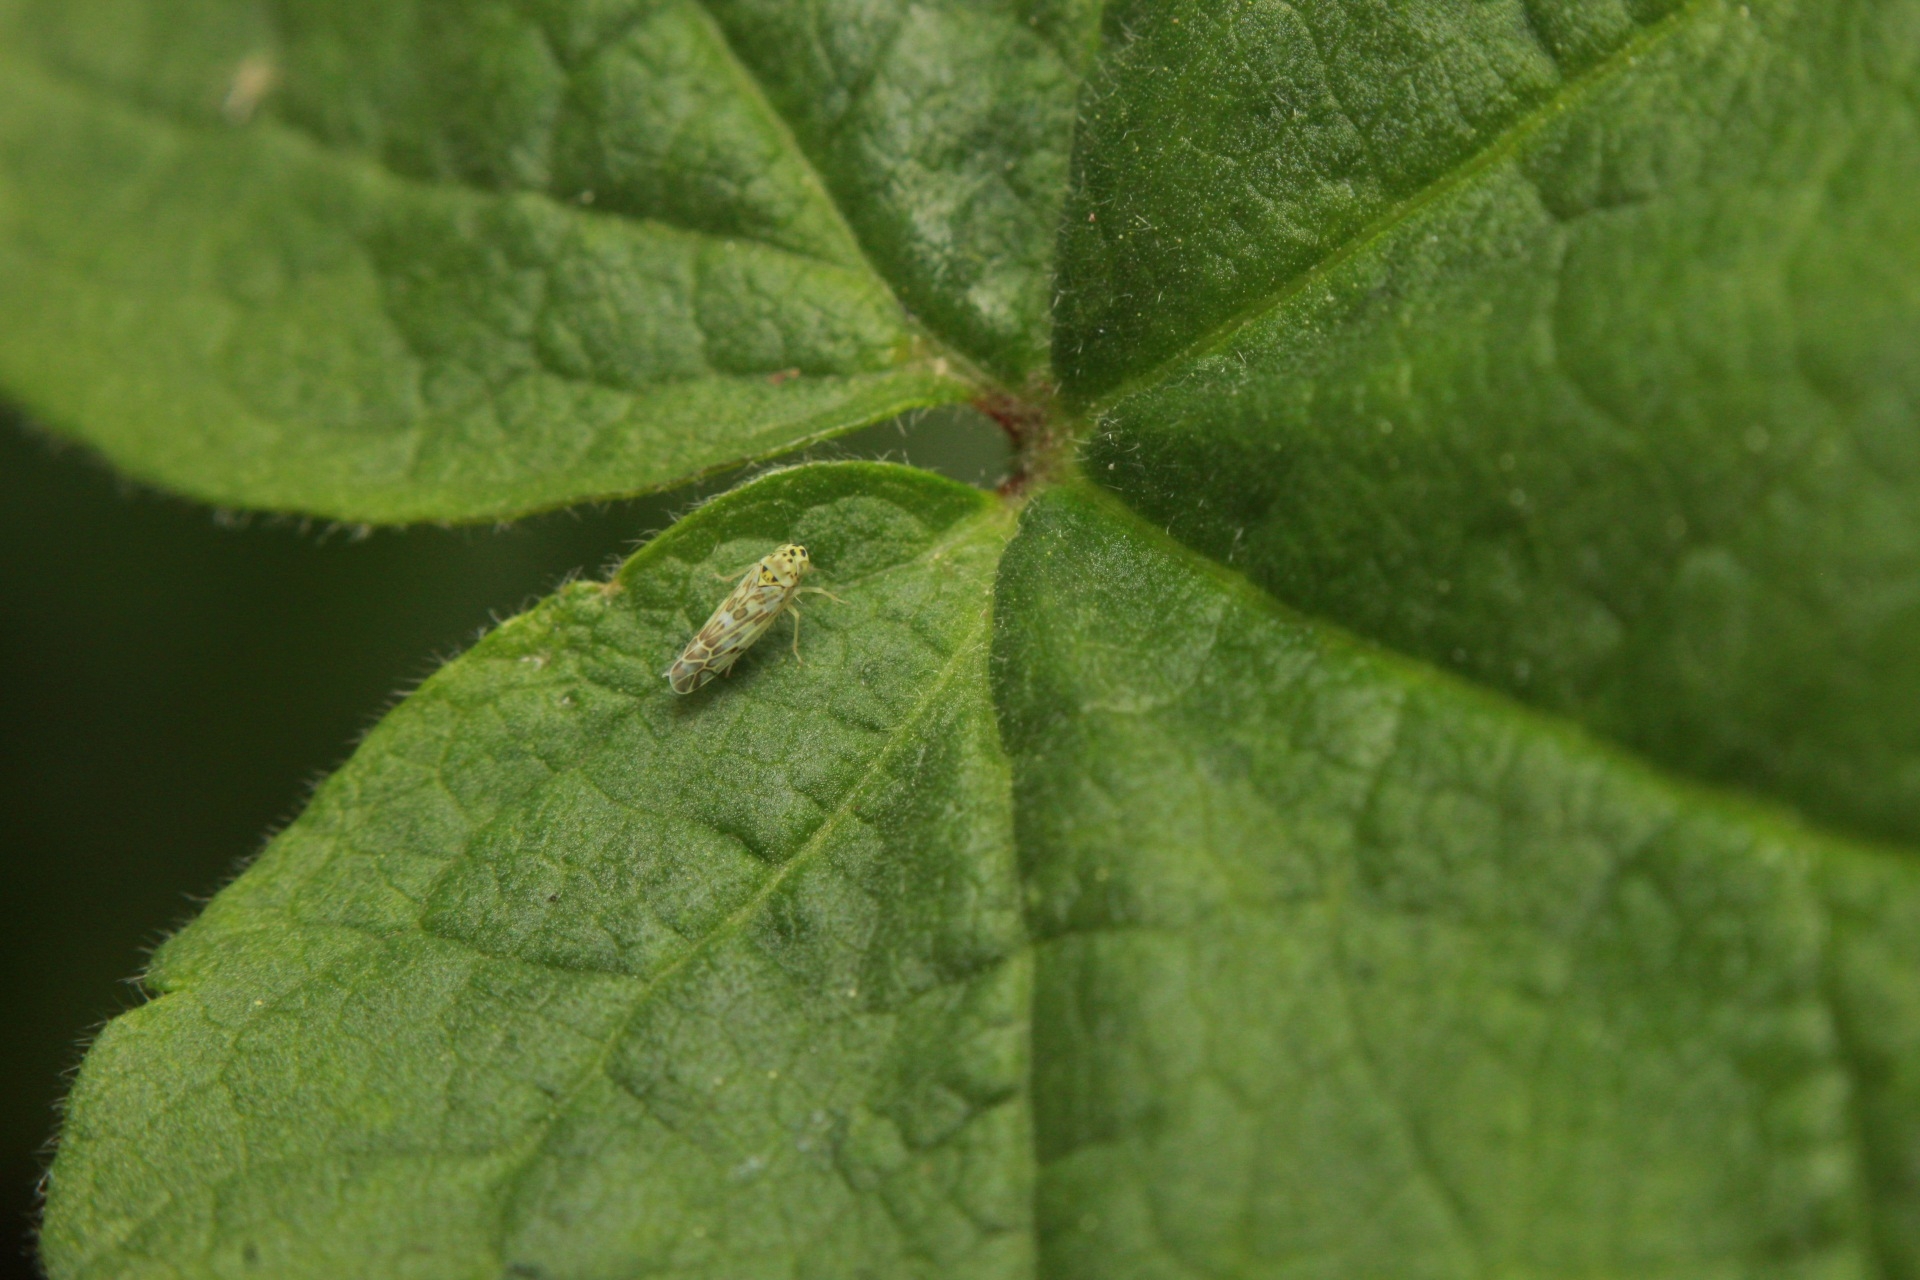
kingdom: Animalia
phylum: Arthropoda
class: Insecta
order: Hemiptera
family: Cicadellidae
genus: Eupteryx
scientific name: Eupteryx melissae
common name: Herb leafhopper
